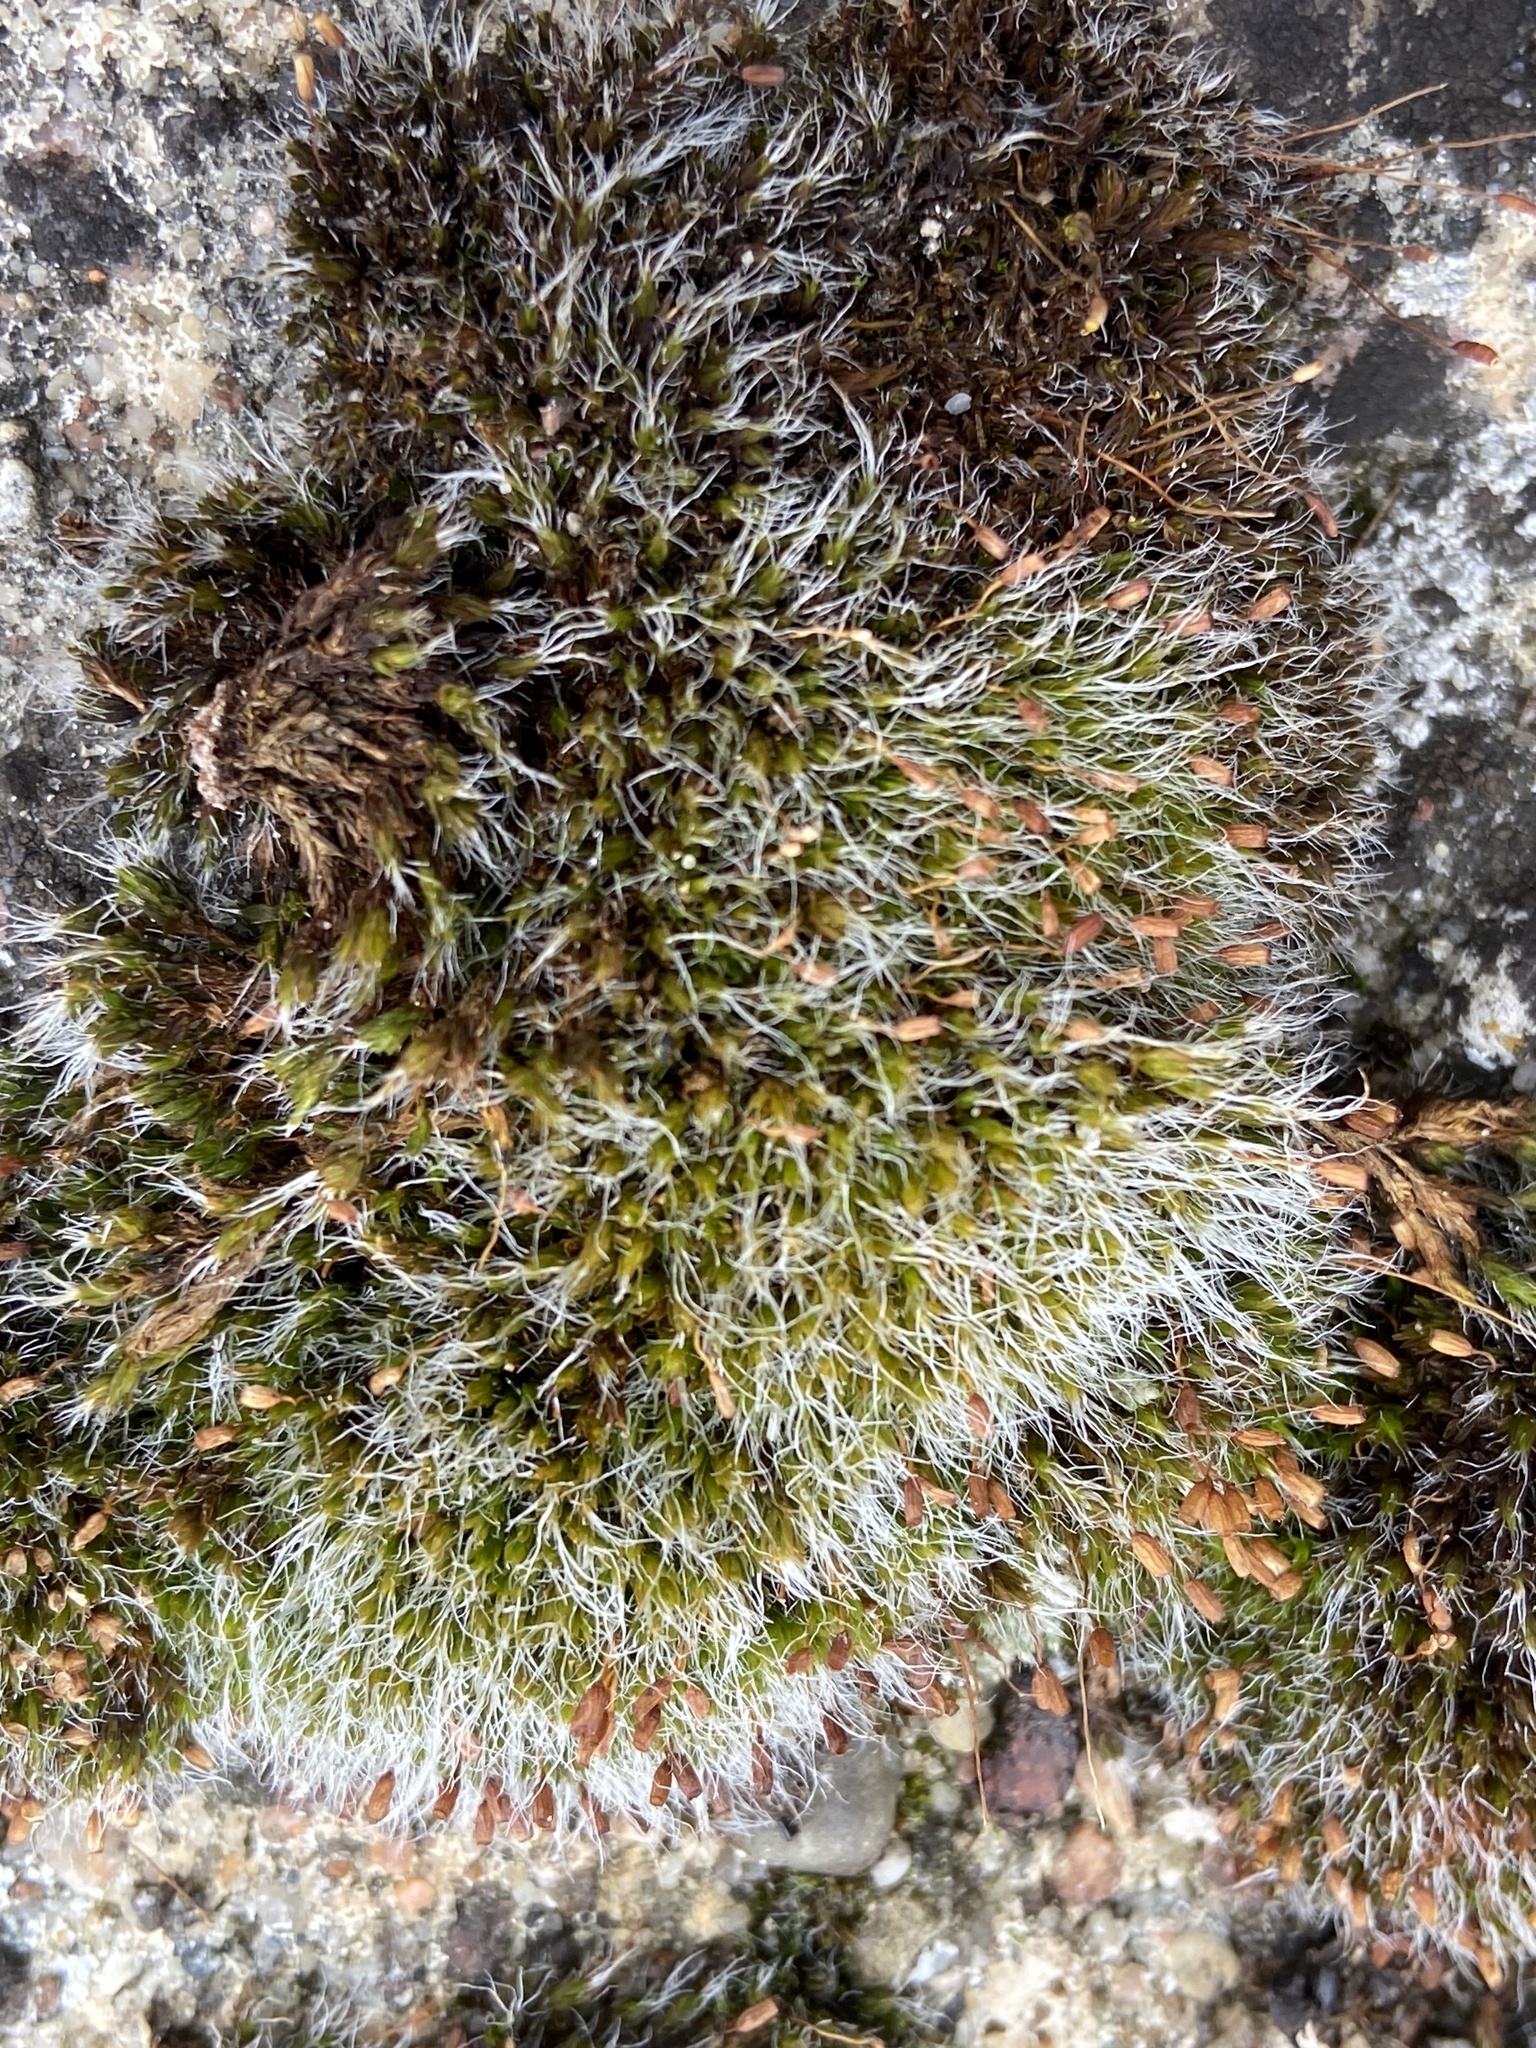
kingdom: Plantae
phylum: Bryophyta
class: Bryopsida
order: Grimmiales
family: Grimmiaceae
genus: Grimmia
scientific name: Grimmia pulvinata
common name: Grey-cushioned grimmia
